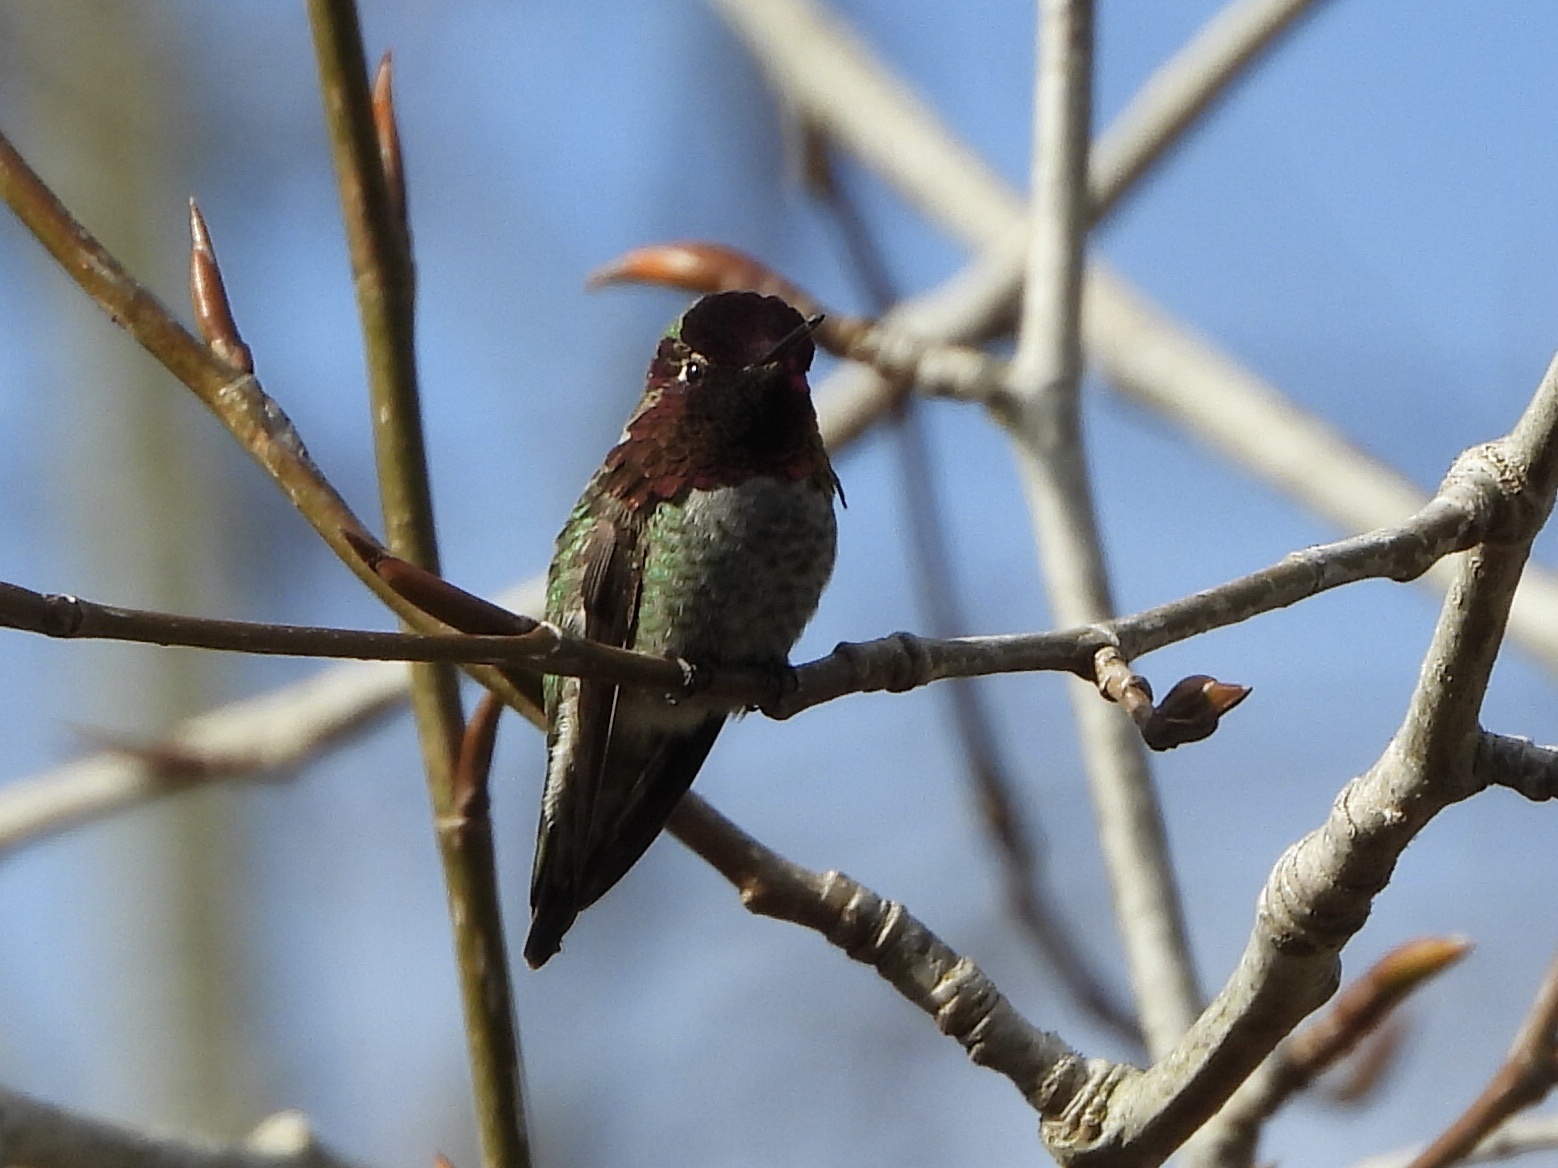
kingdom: Animalia
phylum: Chordata
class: Aves
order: Apodiformes
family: Trochilidae
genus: Calypte
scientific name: Calypte anna
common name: Anna's hummingbird
